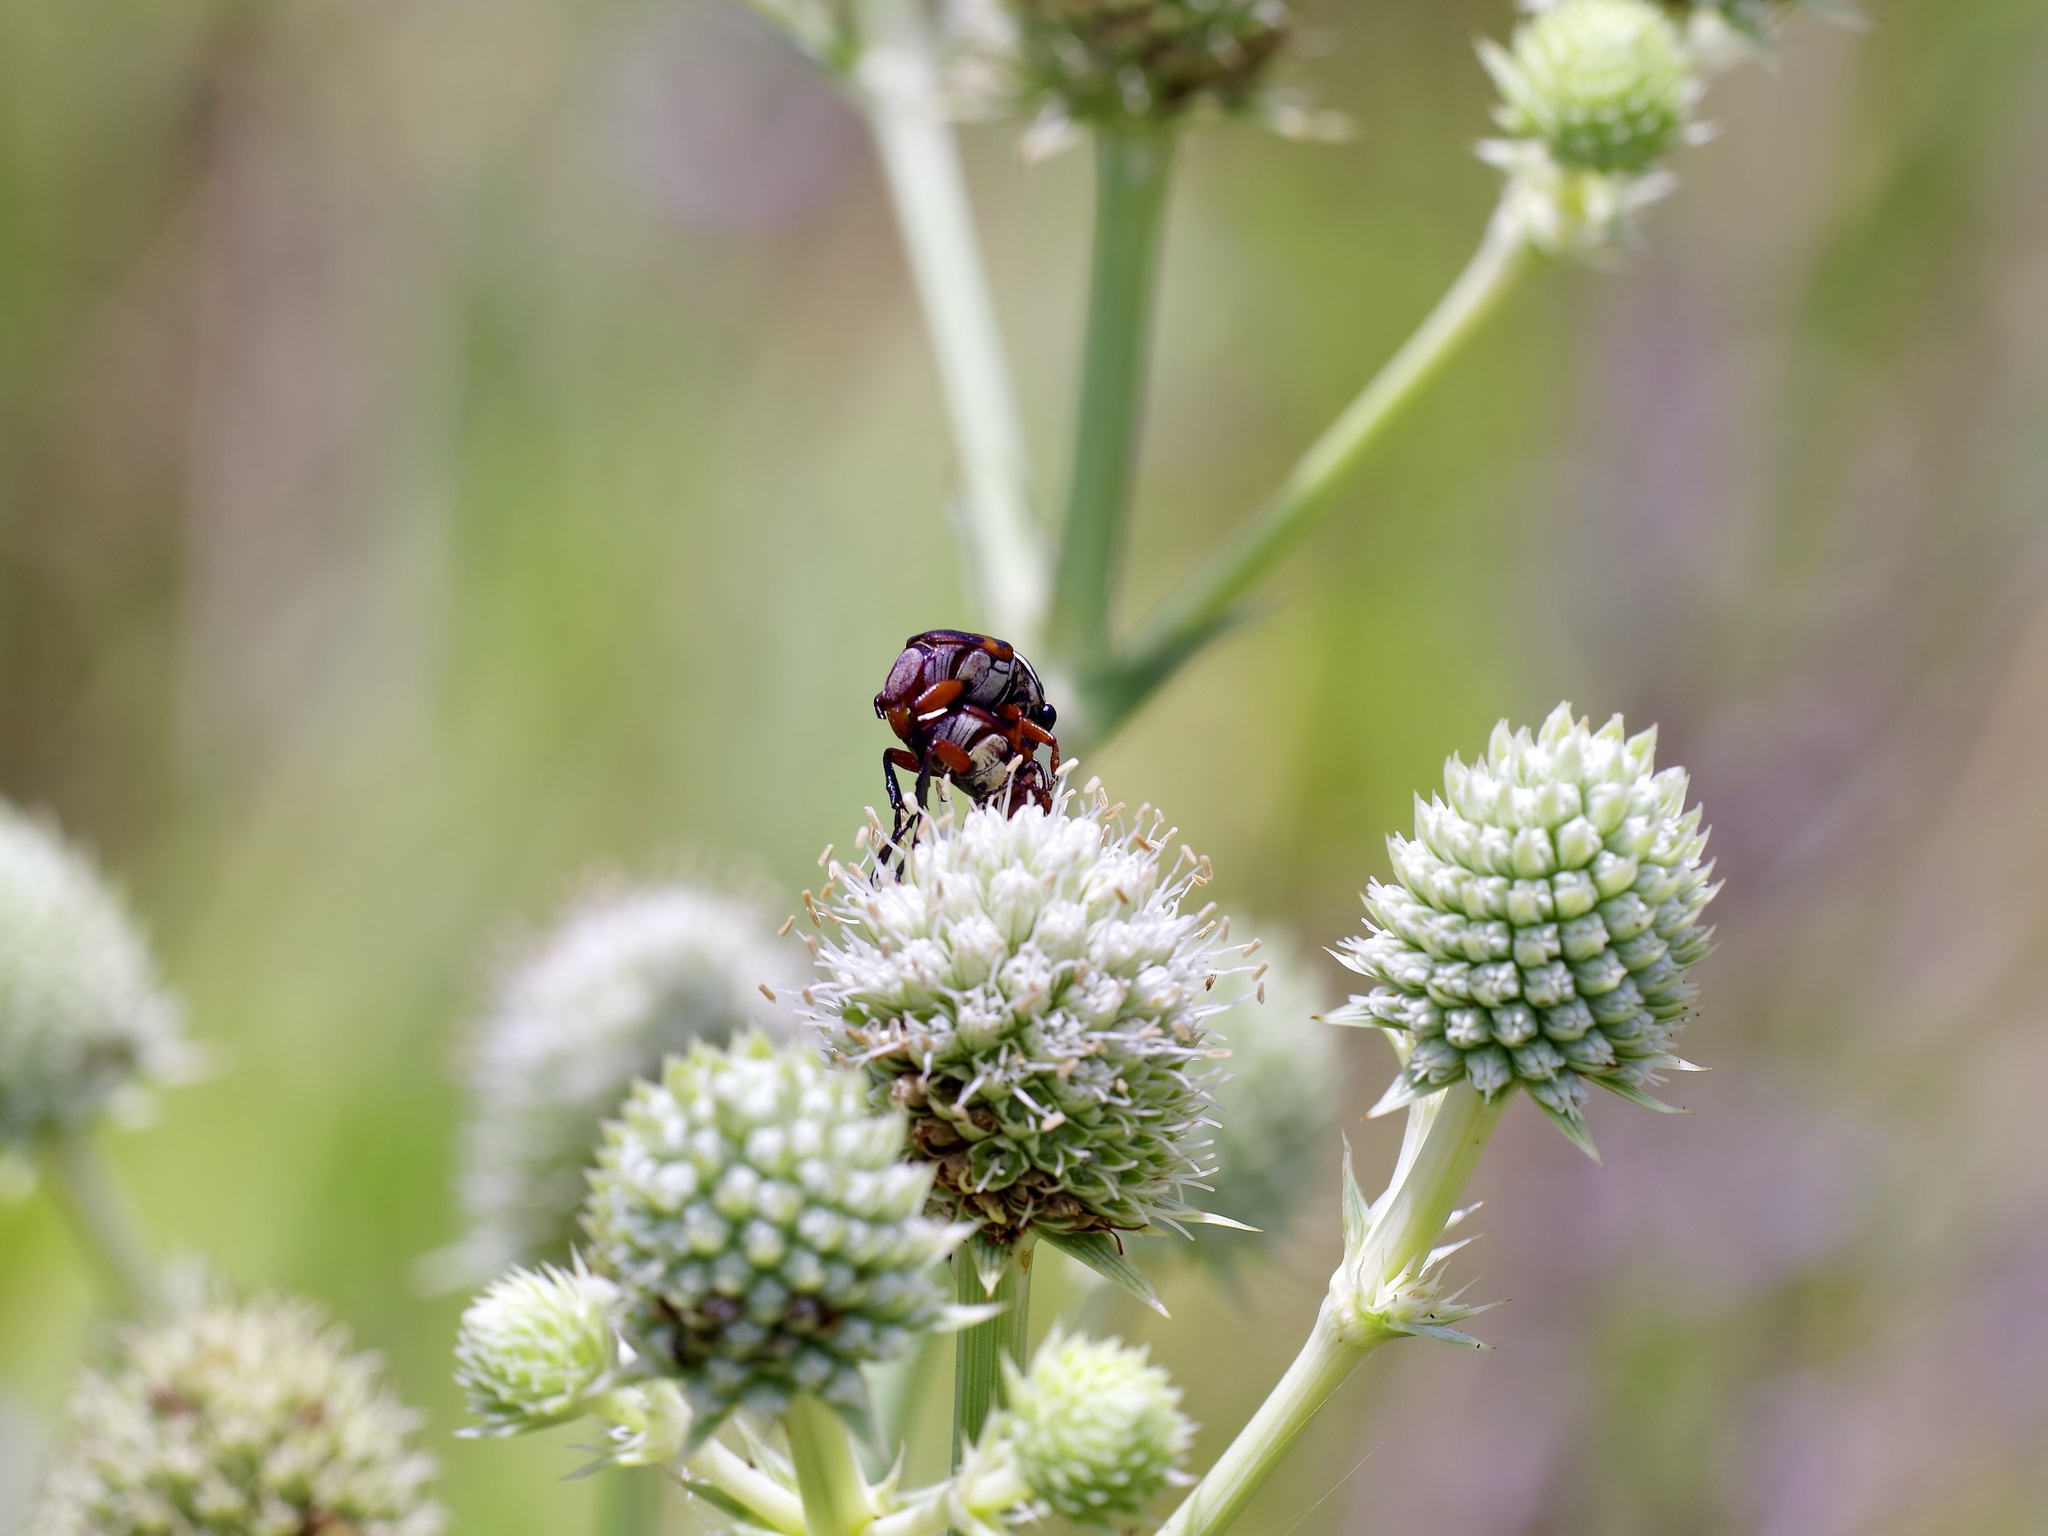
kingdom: Animalia
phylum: Arthropoda
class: Insecta
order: Coleoptera
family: Scarabaeidae
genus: Trigonopeltastes
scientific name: Trigonopeltastes delta
